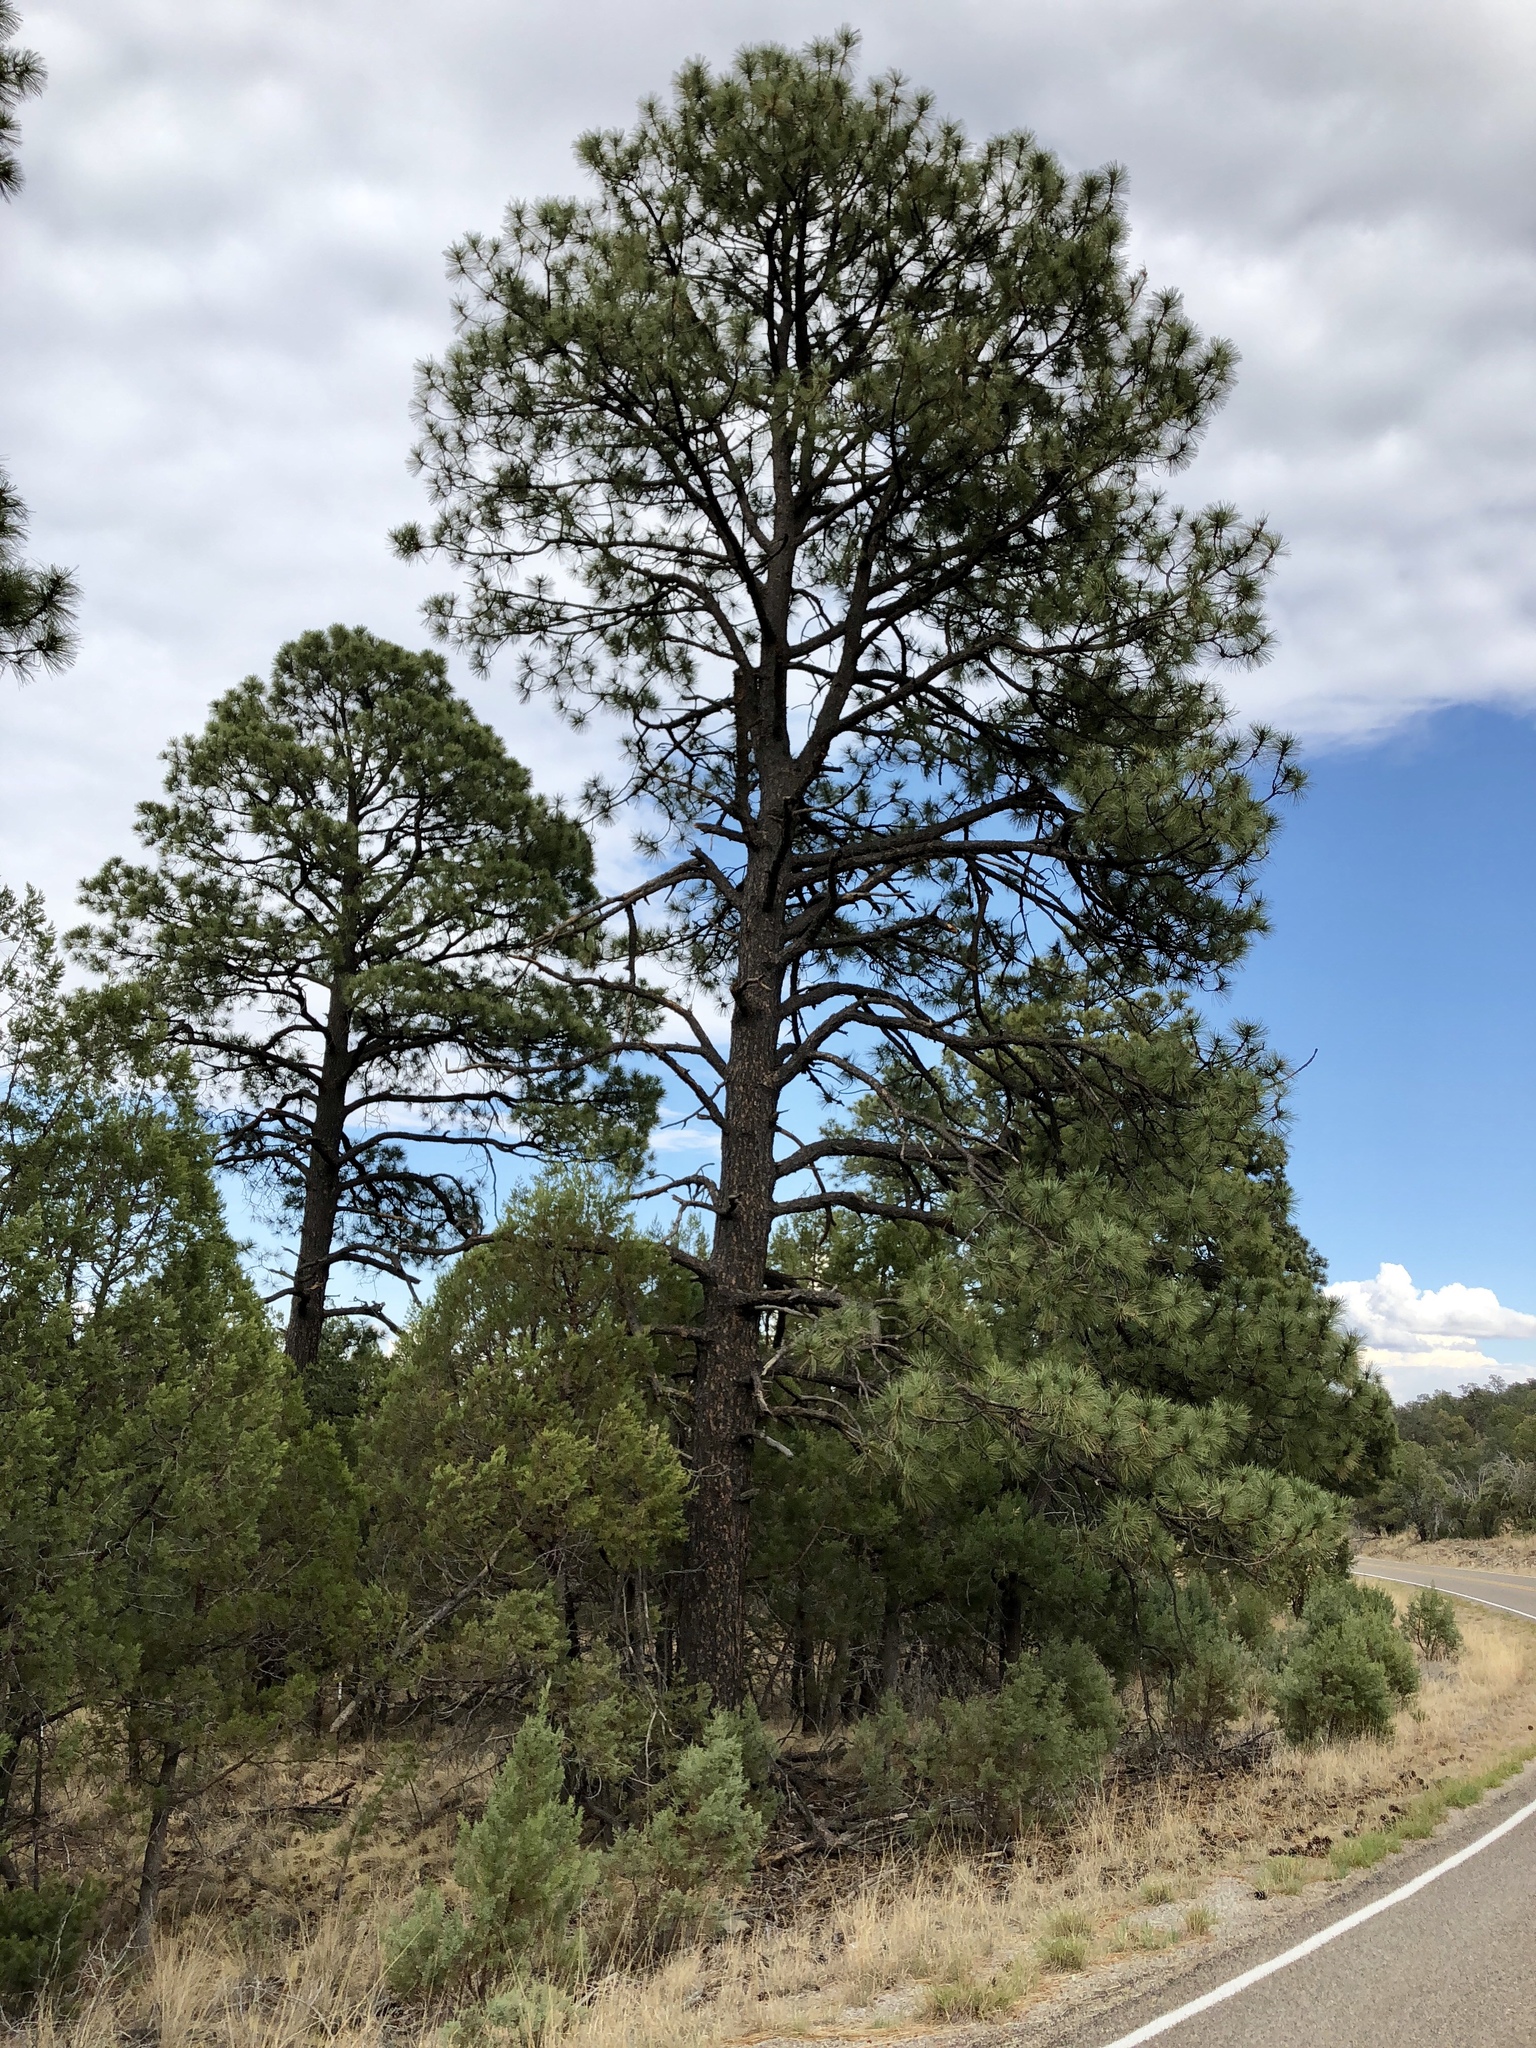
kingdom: Plantae
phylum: Tracheophyta
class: Pinopsida
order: Pinales
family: Pinaceae
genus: Pinus
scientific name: Pinus ponderosa
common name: Western yellow-pine
